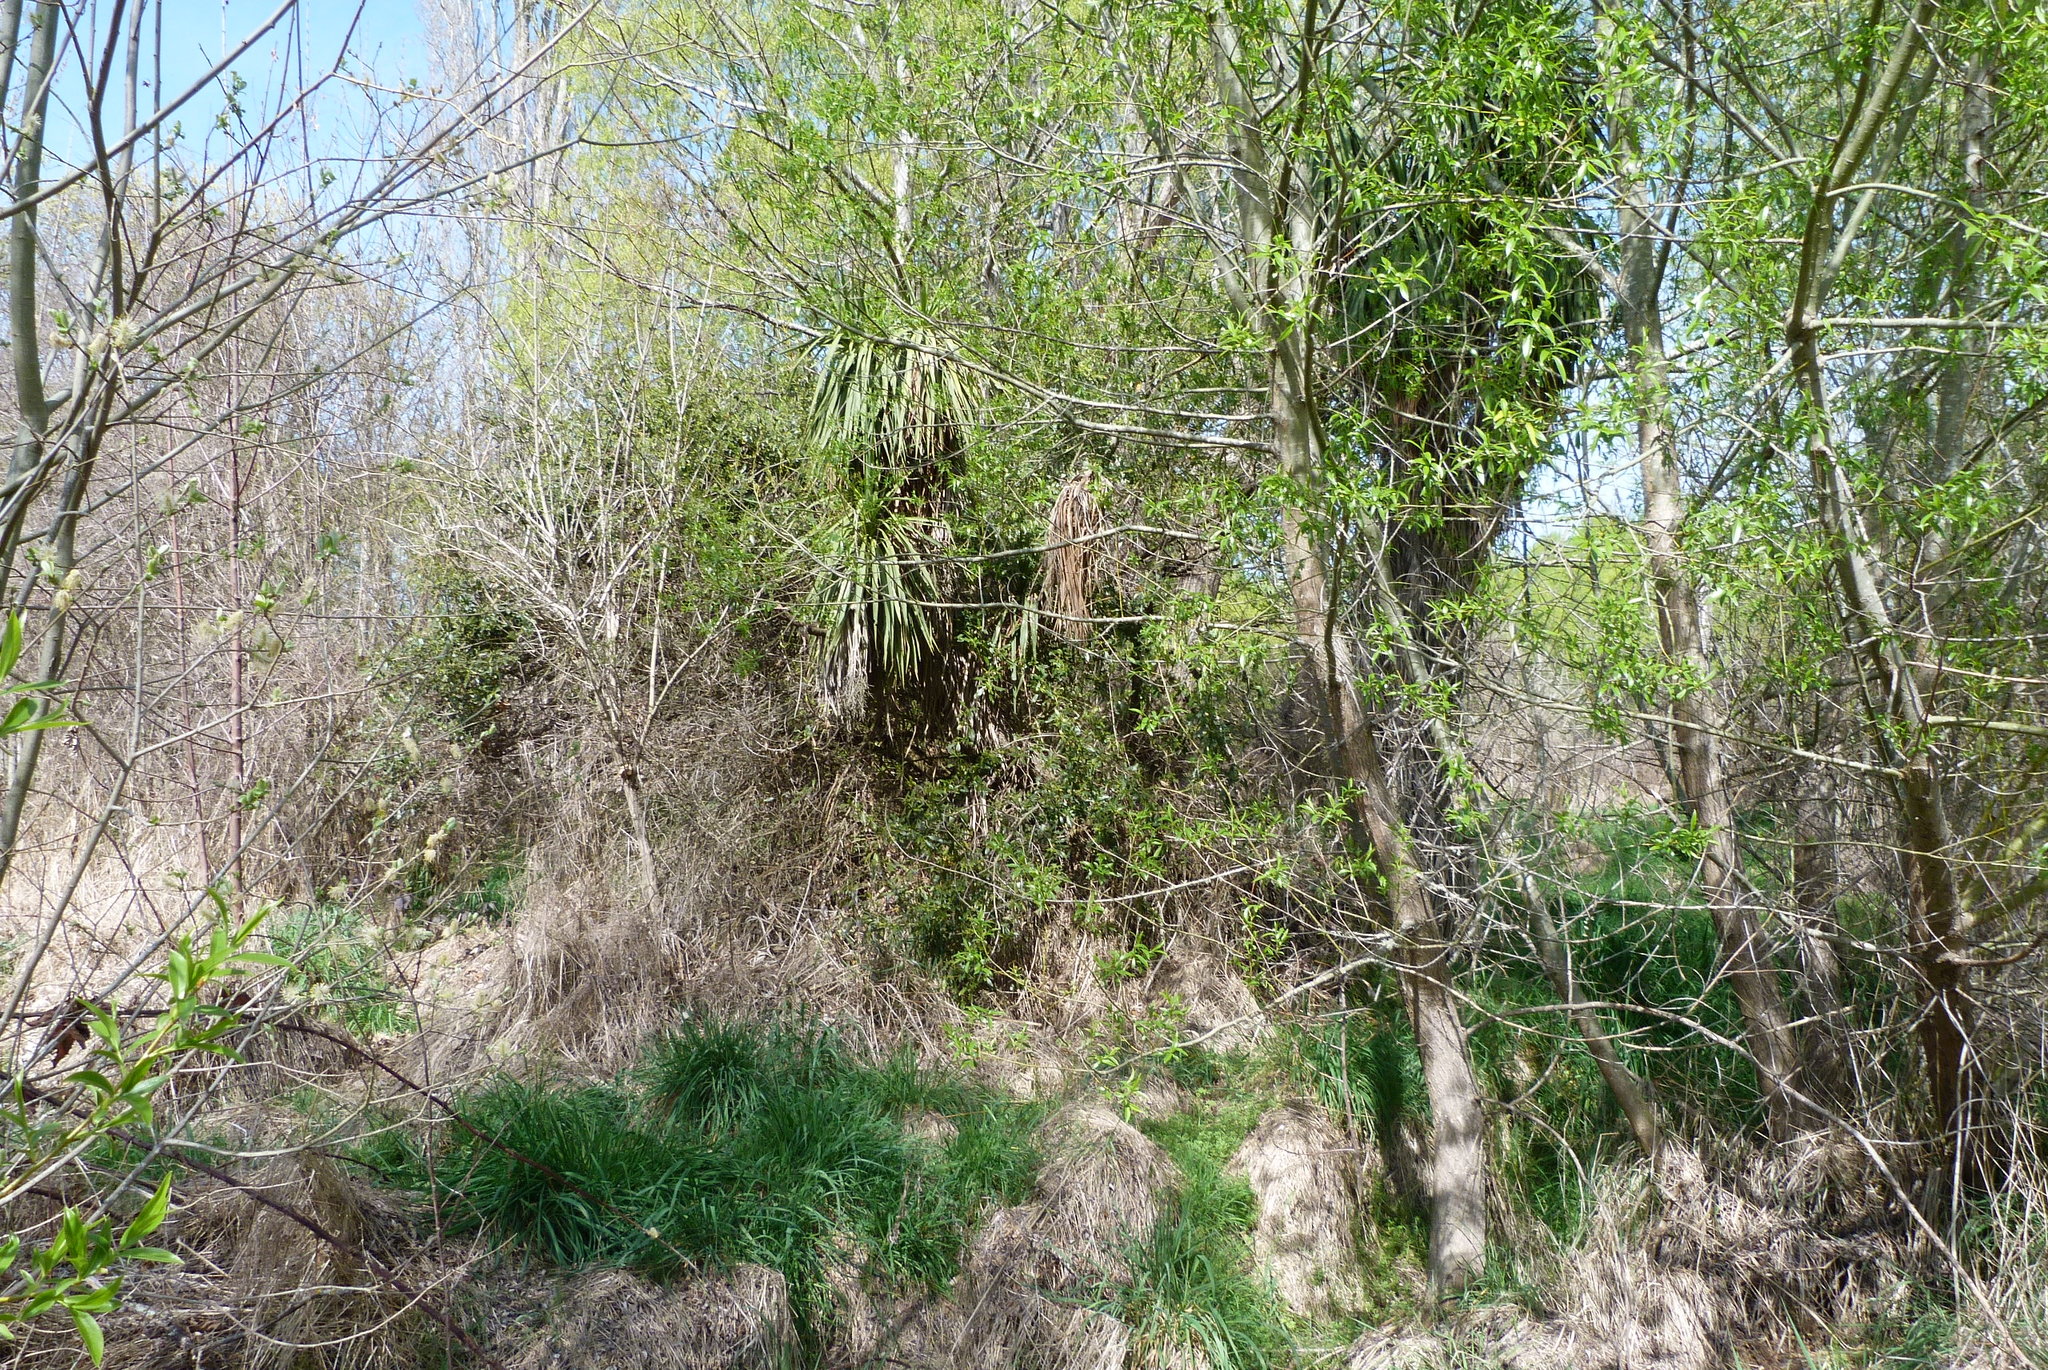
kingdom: Plantae
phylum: Tracheophyta
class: Liliopsida
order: Asparagales
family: Asparagaceae
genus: Cordyline
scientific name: Cordyline australis
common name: Cabbage-palm
